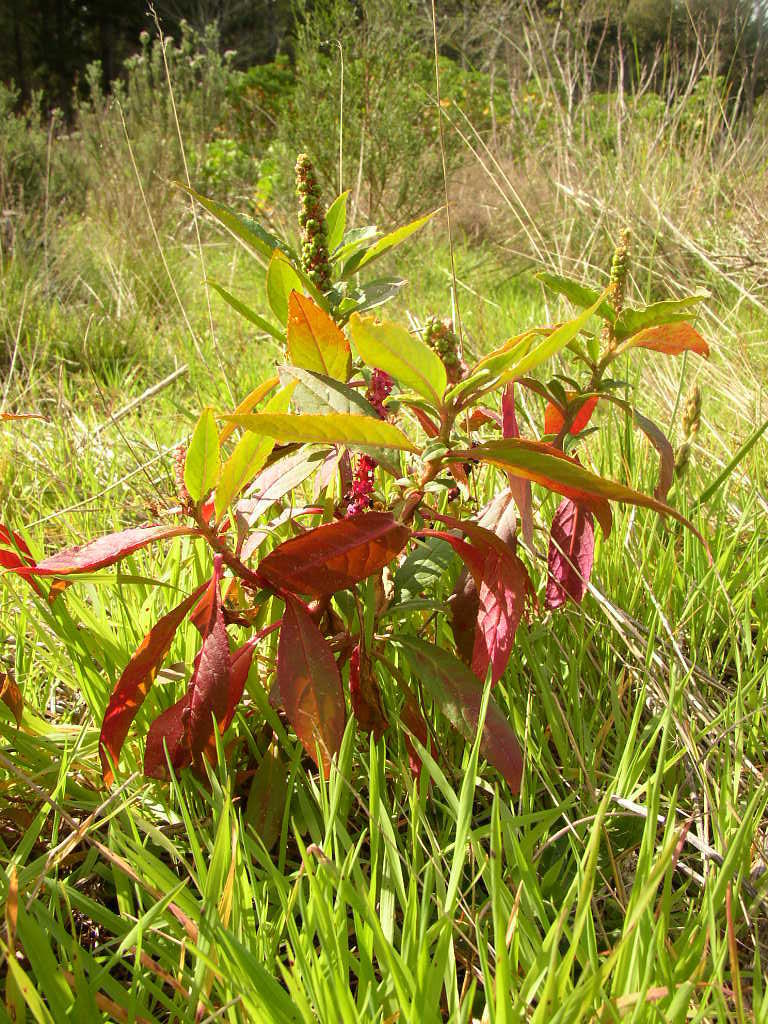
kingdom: Plantae
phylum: Tracheophyta
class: Magnoliopsida
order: Caryophyllales
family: Phytolaccaceae
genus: Phytolacca
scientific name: Phytolacca icosandra
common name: Button pokeweed
